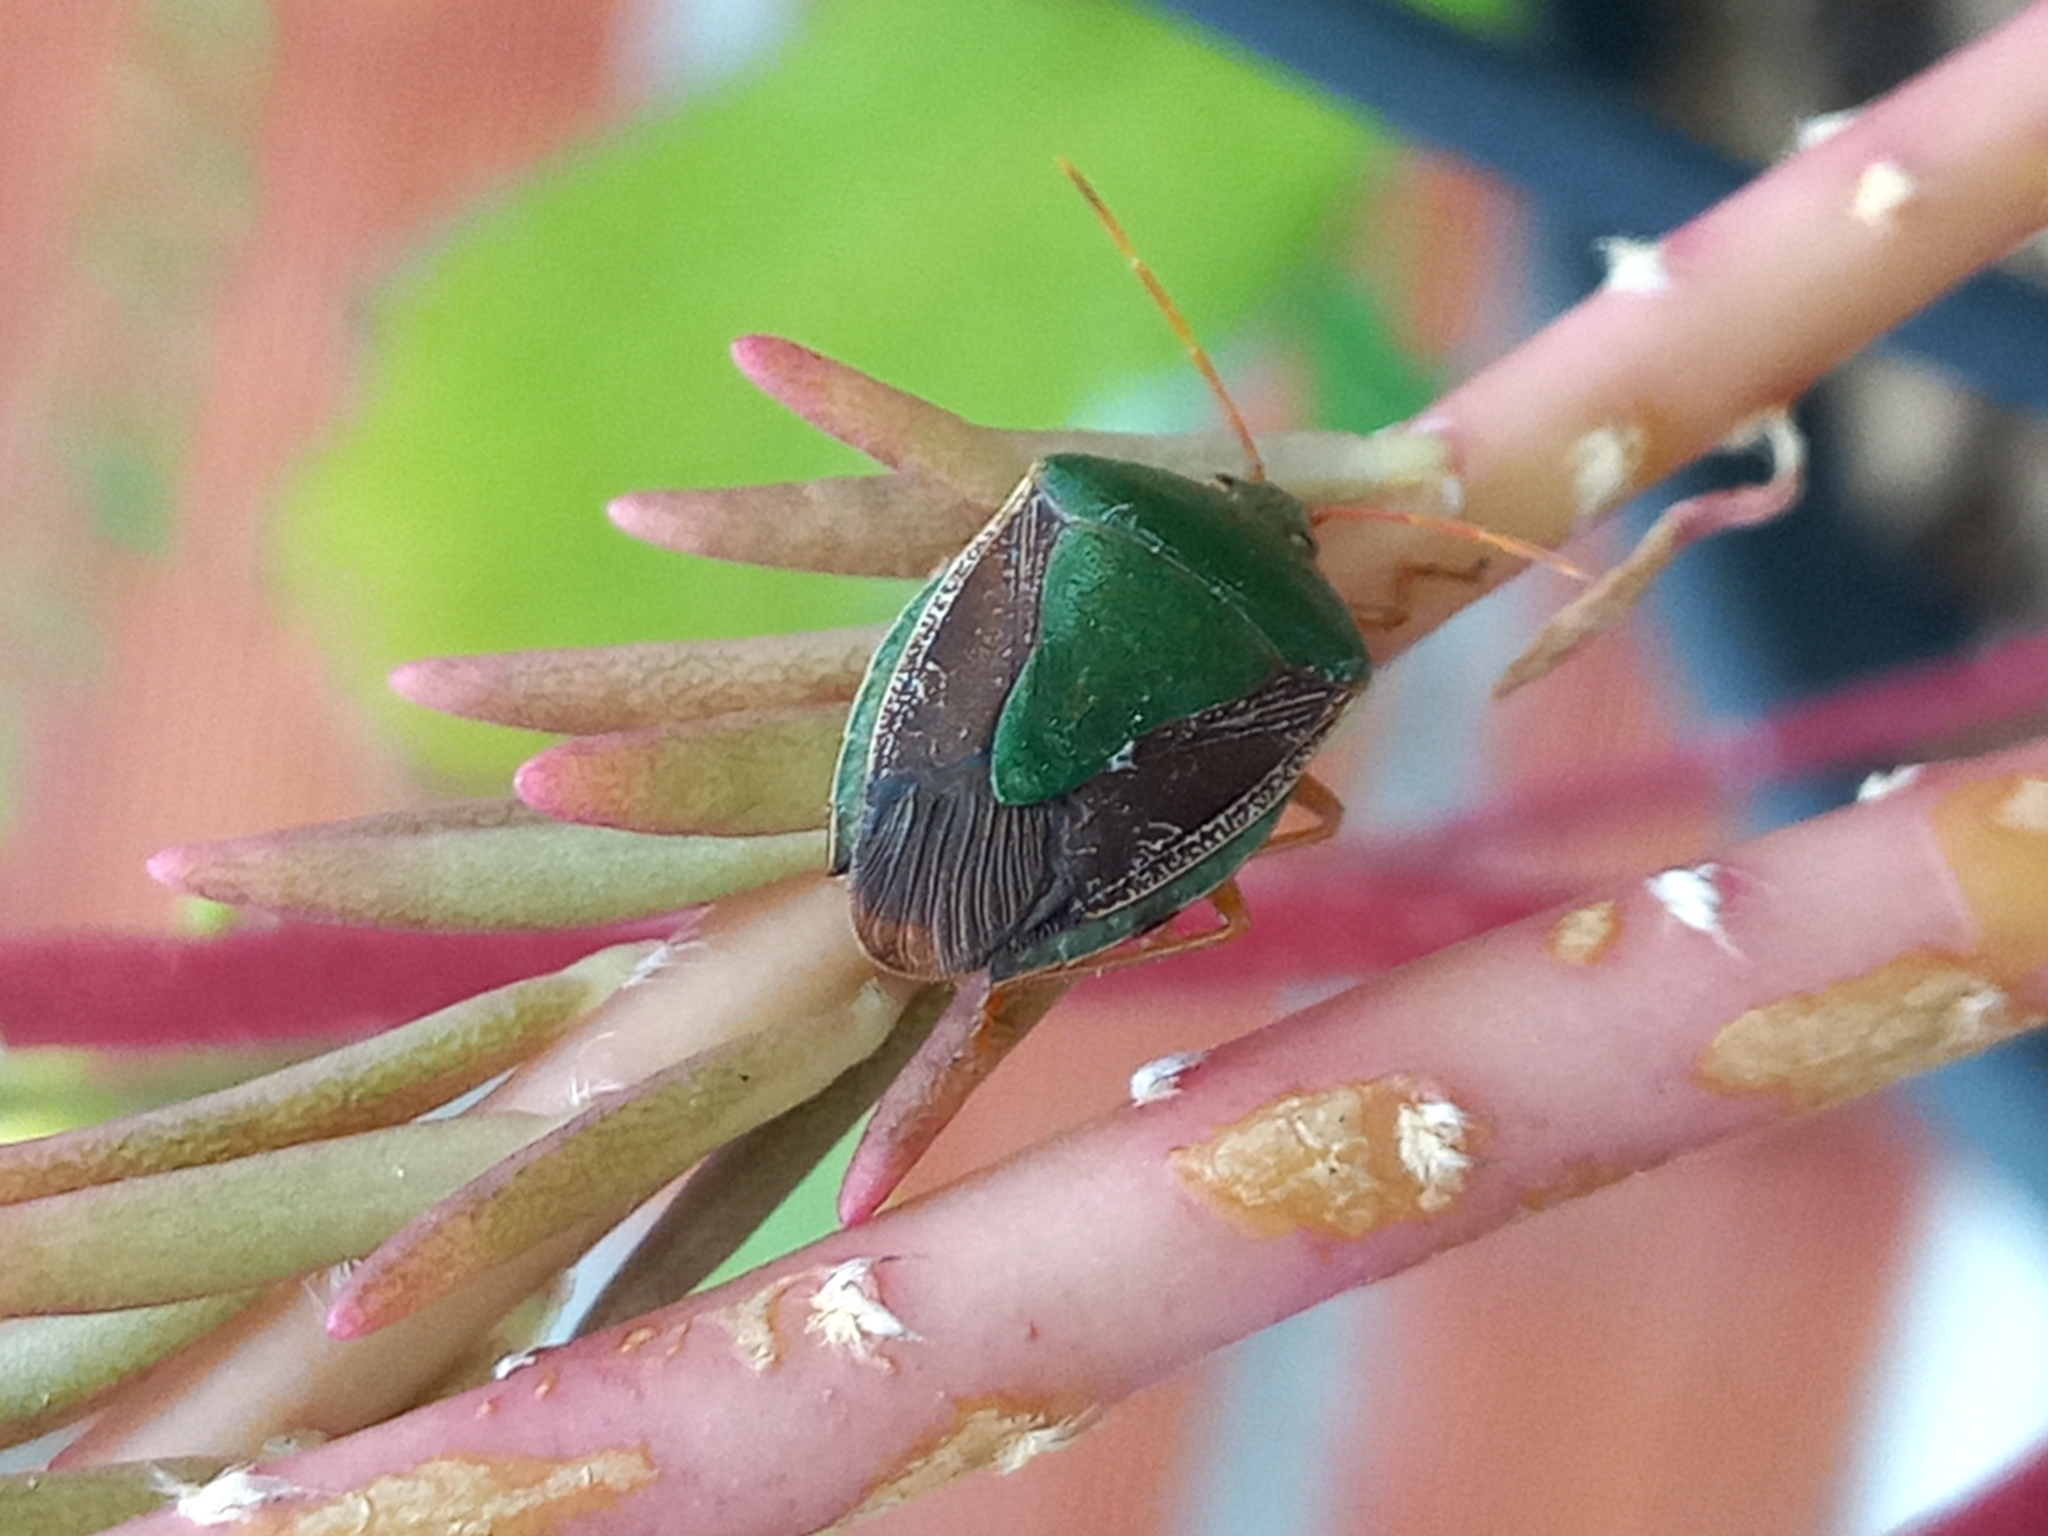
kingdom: Animalia
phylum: Arthropoda
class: Insecta
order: Hemiptera
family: Pentatomidae
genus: Edessa
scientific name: Edessa meditabunda
